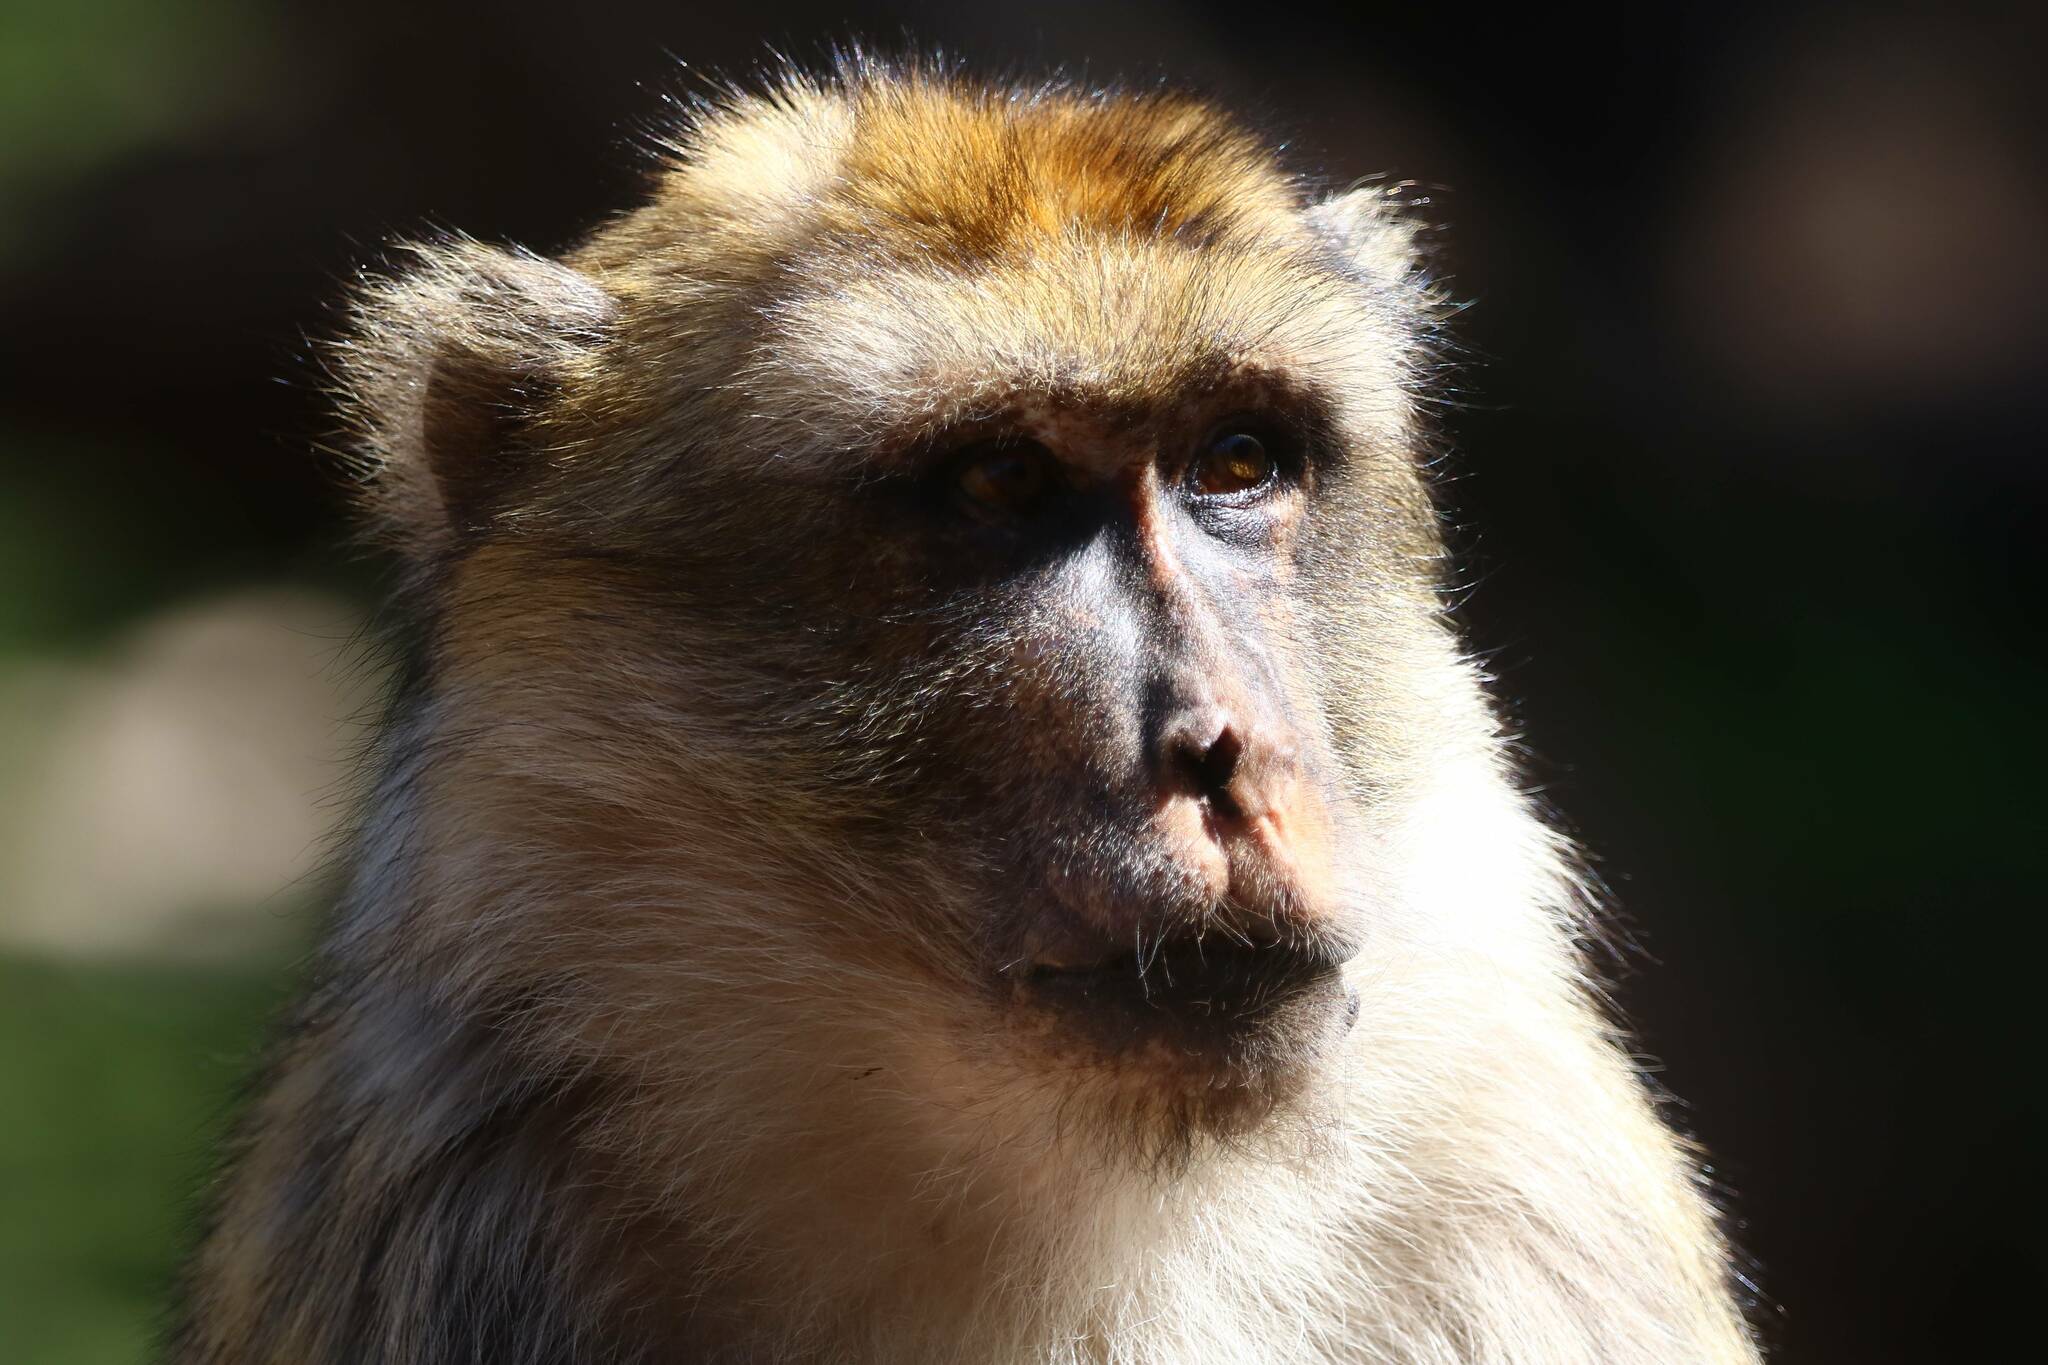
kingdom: Animalia
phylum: Chordata
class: Mammalia
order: Primates
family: Cercopithecidae
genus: Macaca
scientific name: Macaca sylvanus
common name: Barbary macaque
